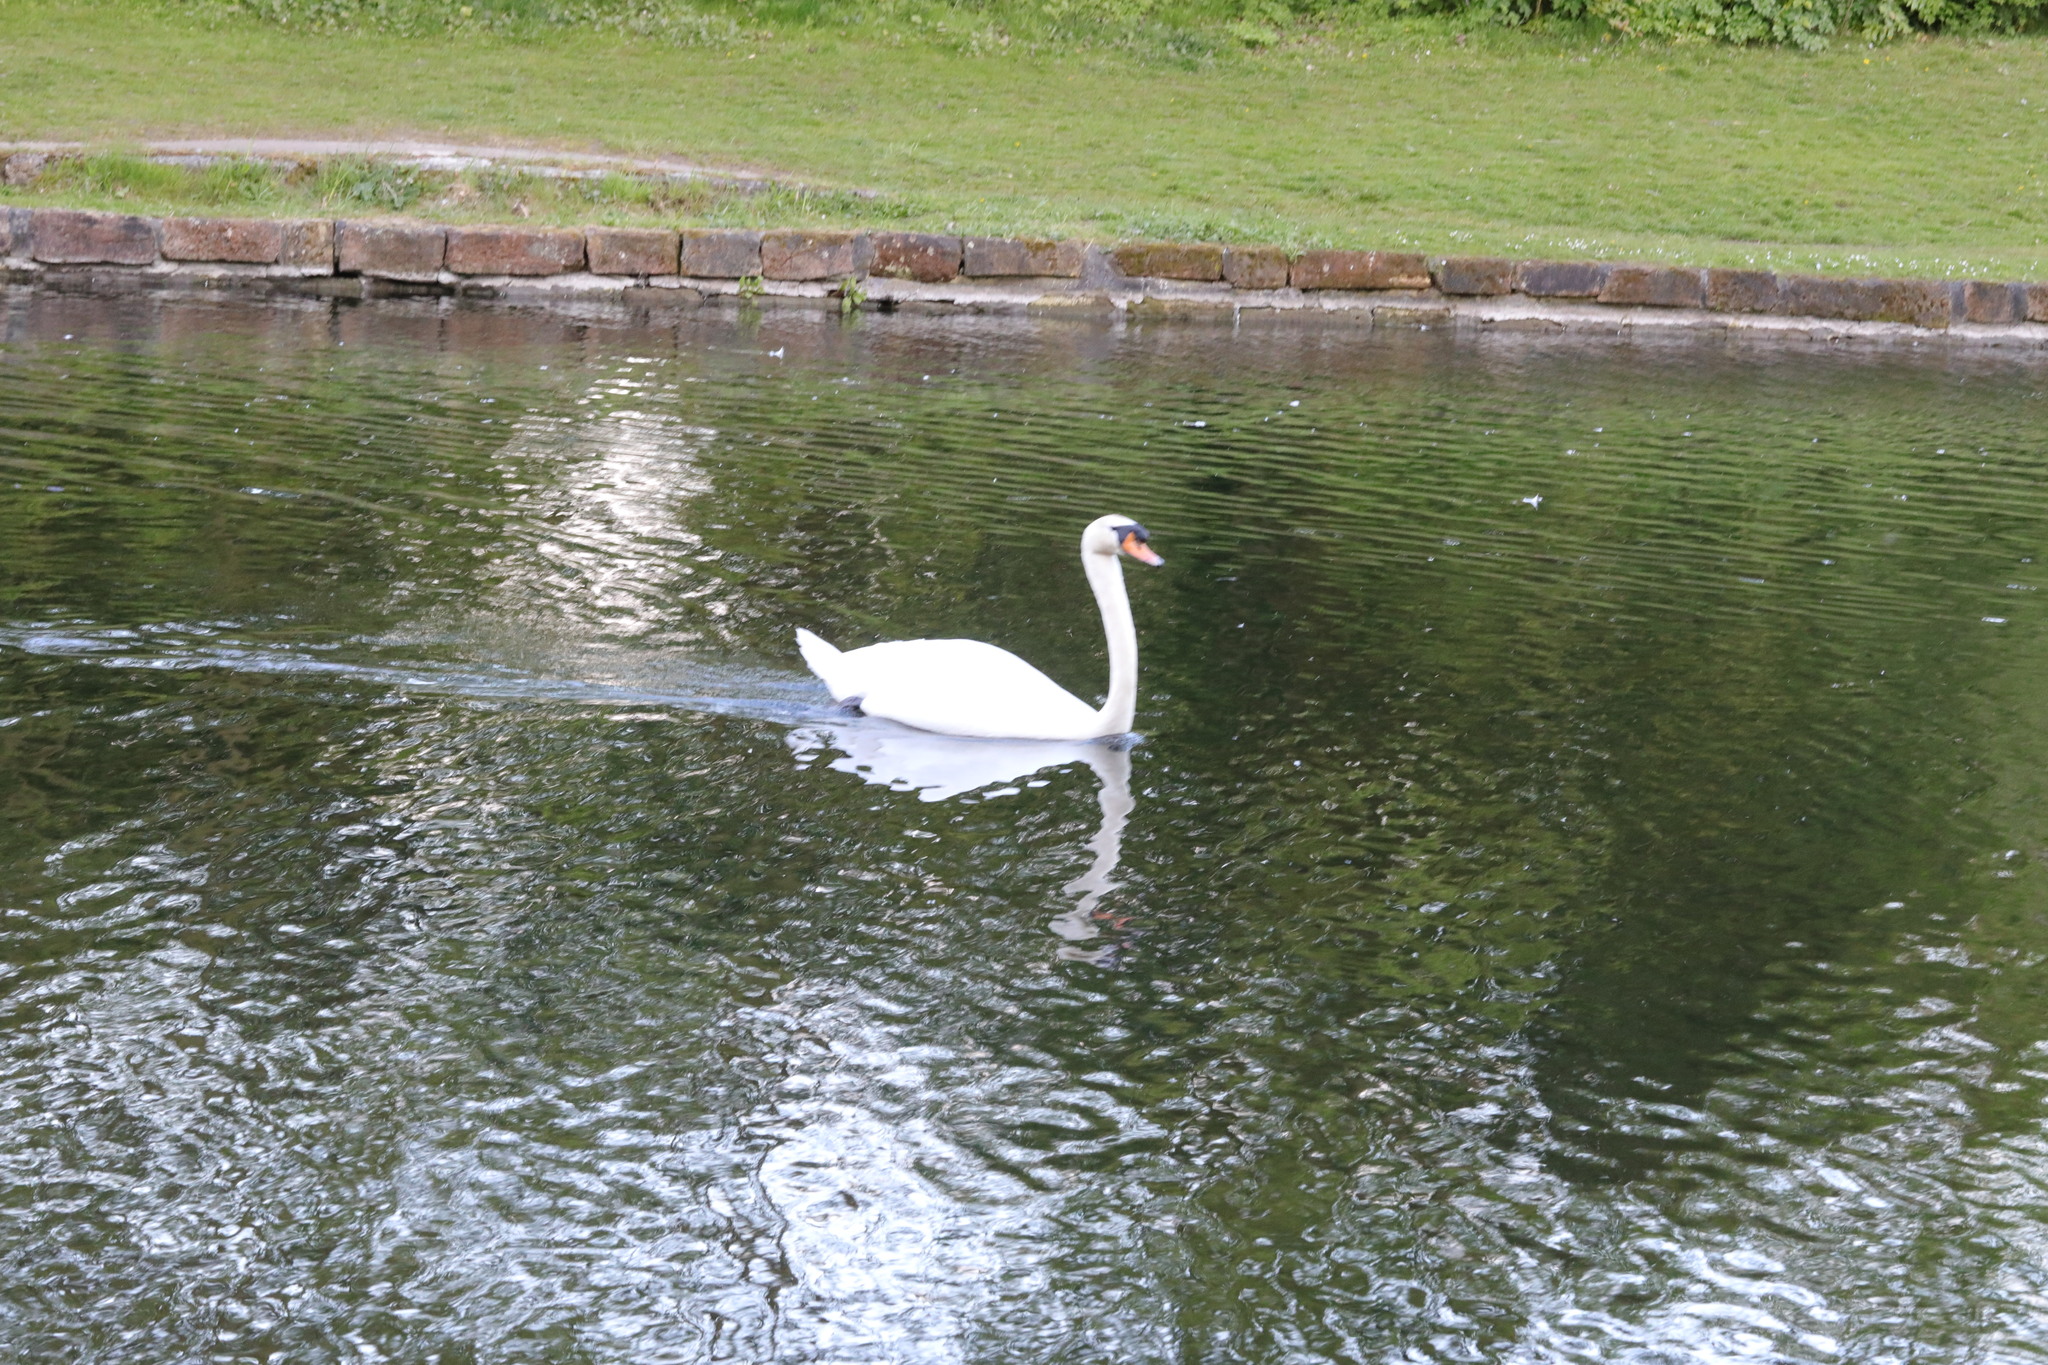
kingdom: Animalia
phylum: Chordata
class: Aves
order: Anseriformes
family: Anatidae
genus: Cygnus
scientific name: Cygnus olor
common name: Mute swan
